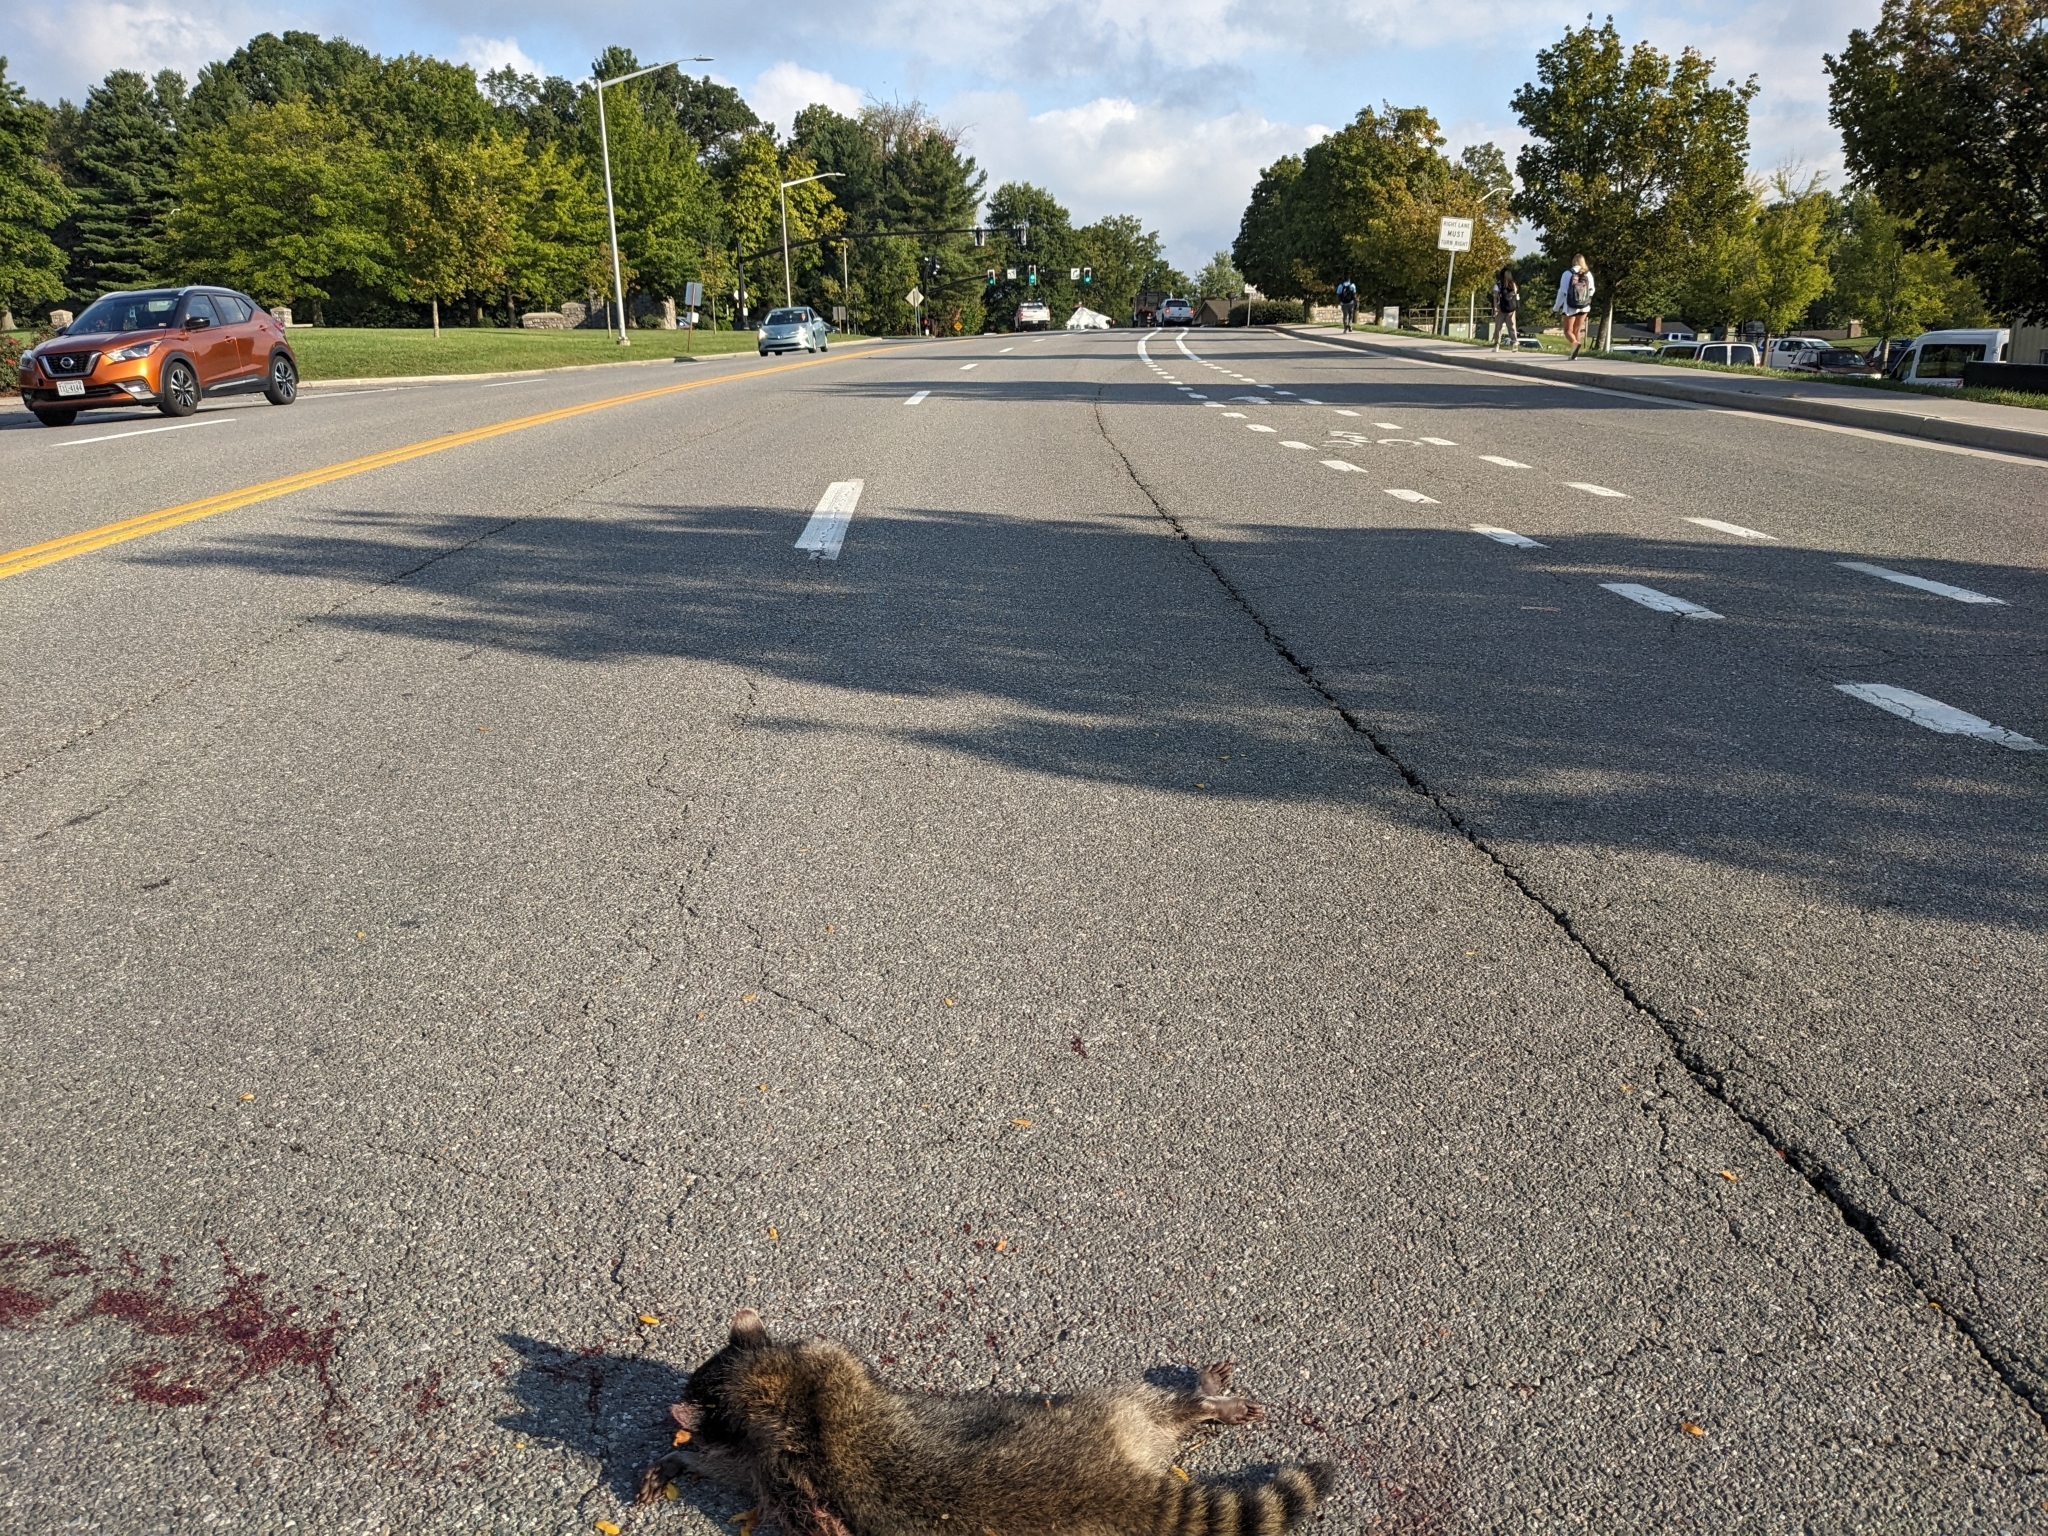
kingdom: Animalia
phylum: Chordata
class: Mammalia
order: Carnivora
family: Procyonidae
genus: Procyon
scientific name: Procyon lotor
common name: Raccoon
